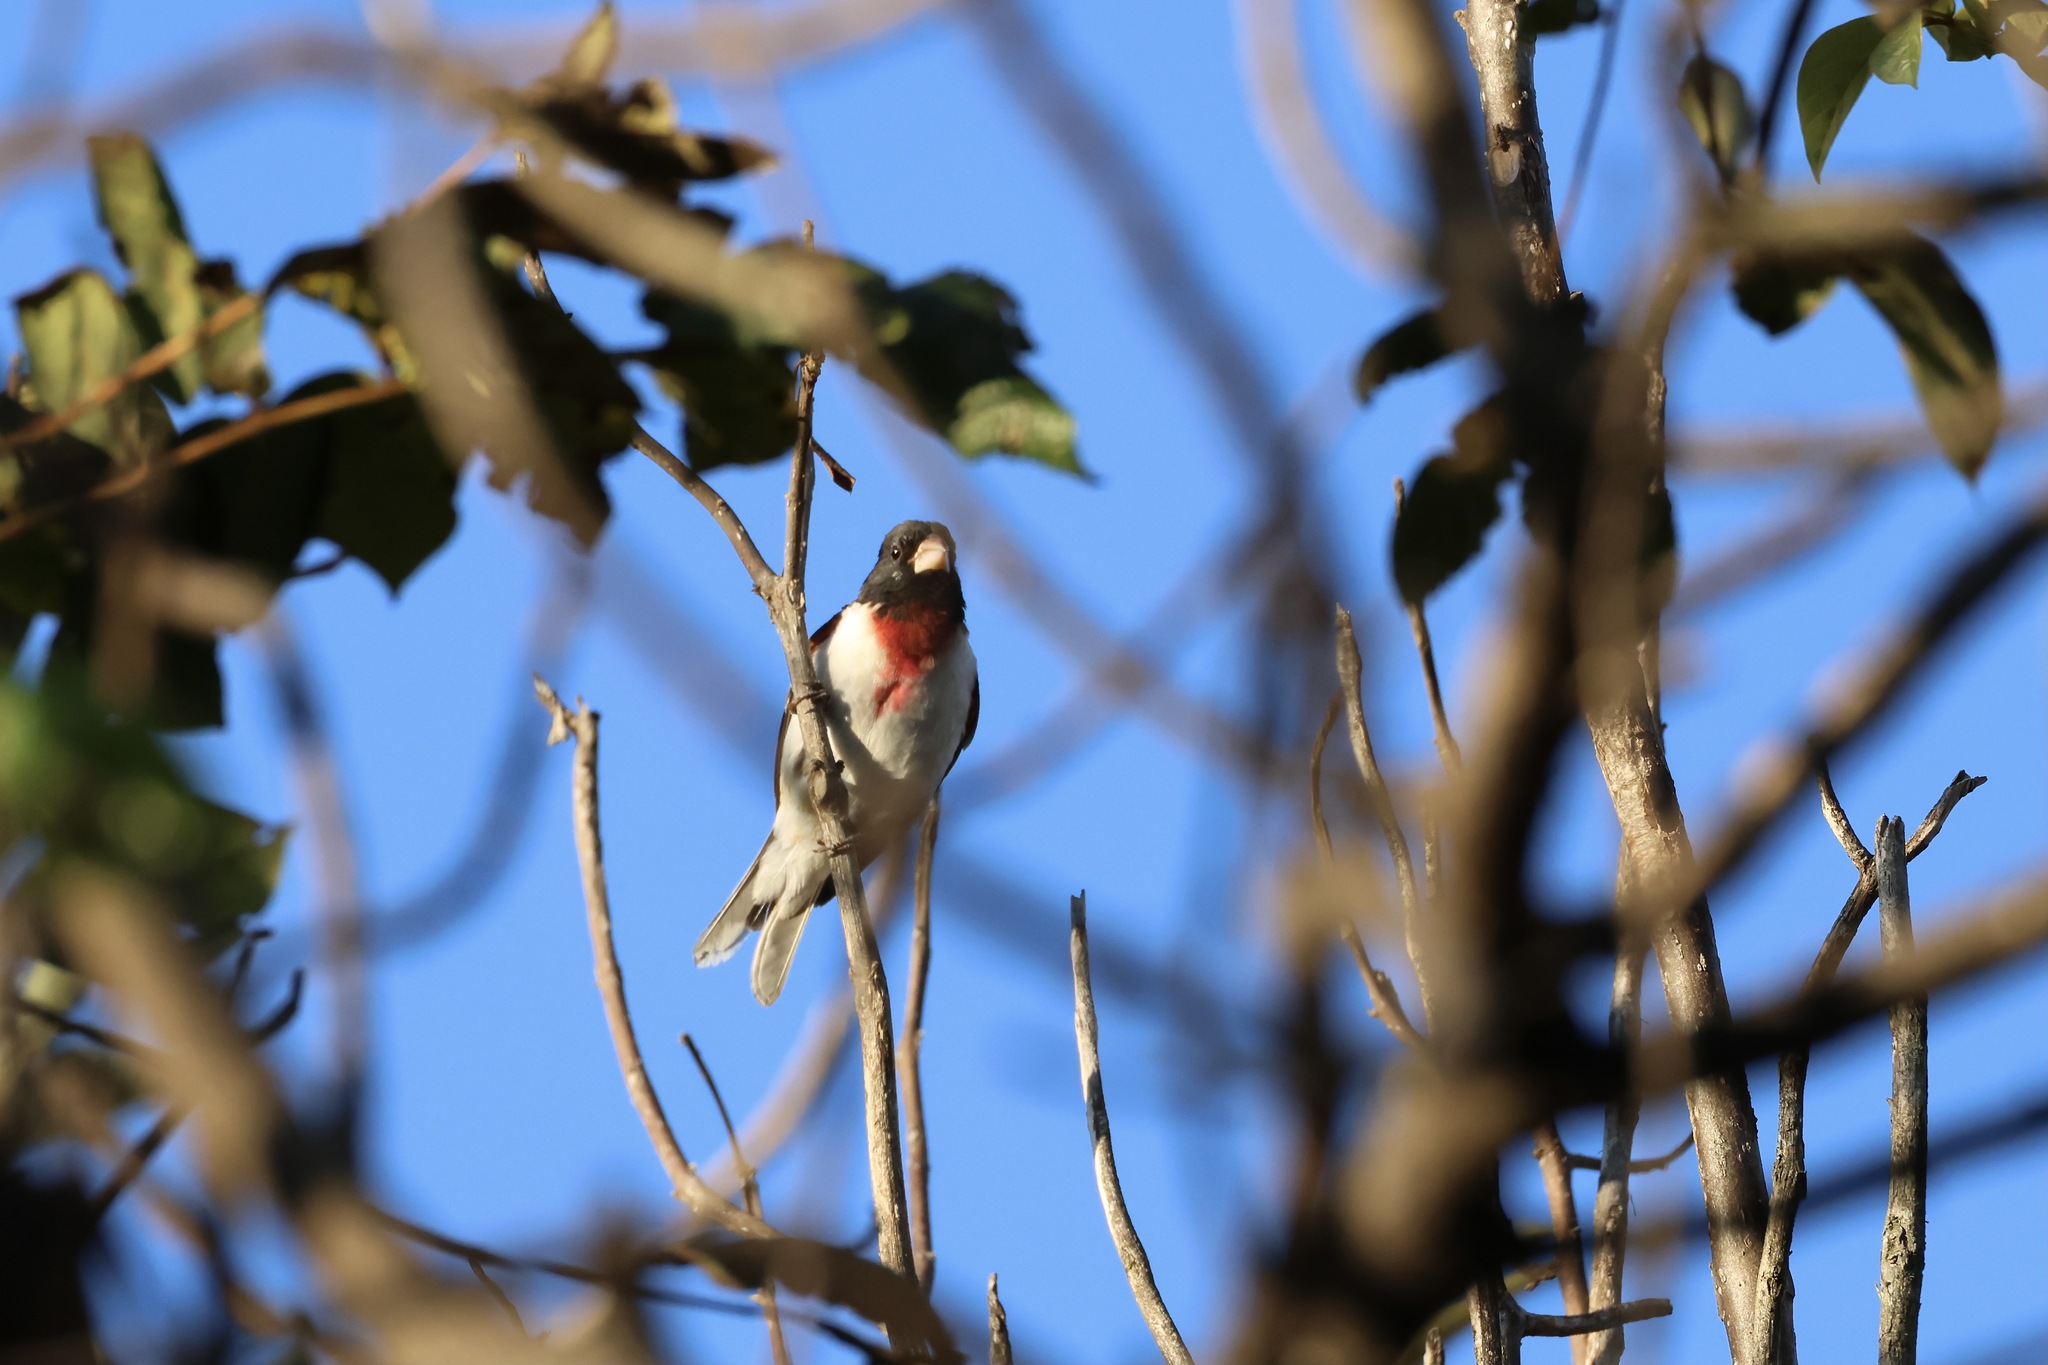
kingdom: Animalia
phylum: Chordata
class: Aves
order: Passeriformes
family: Cardinalidae
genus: Pheucticus
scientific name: Pheucticus ludovicianus
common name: Rose-breasted grosbeak
